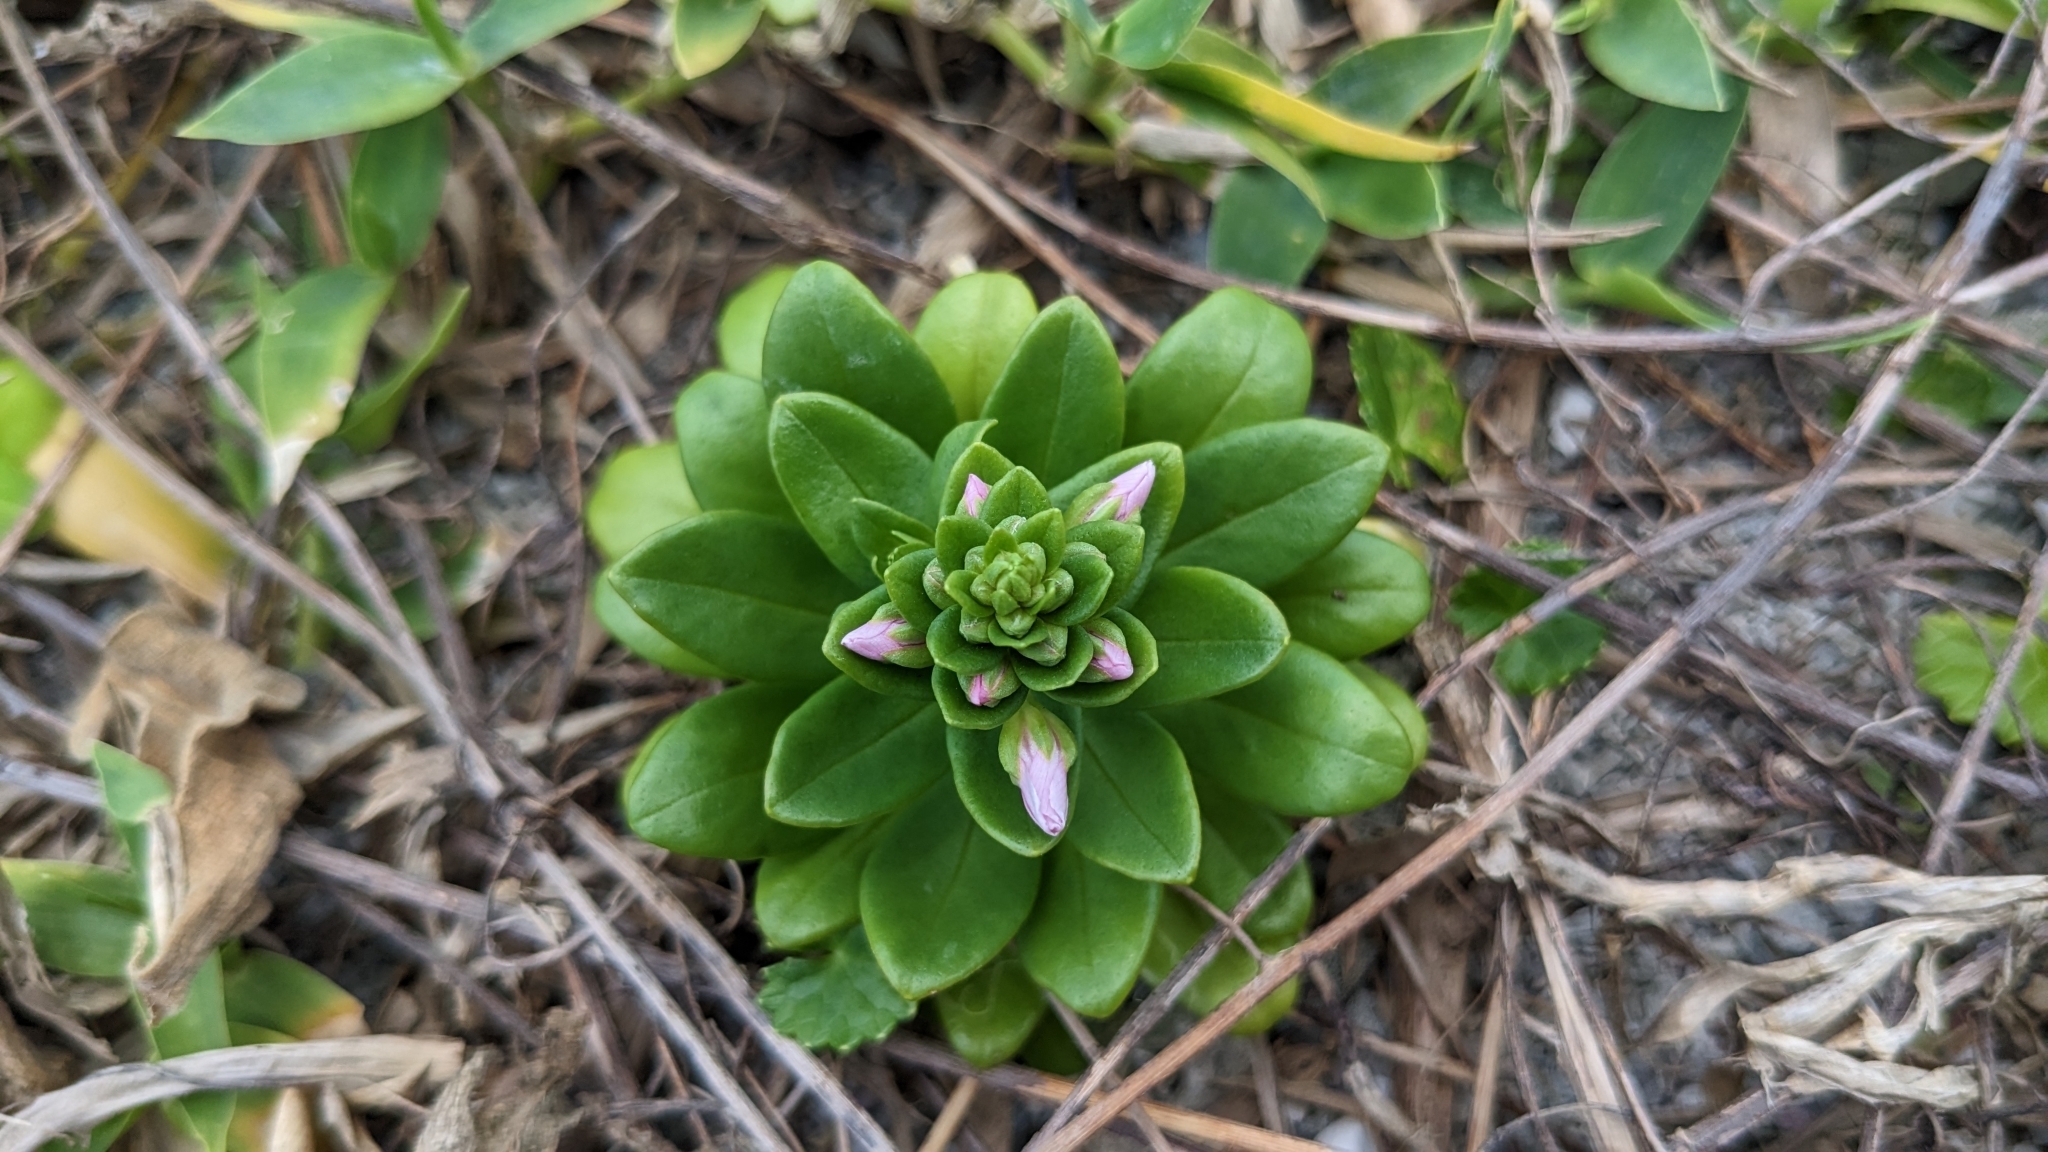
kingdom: Plantae
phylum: Tracheophyta
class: Magnoliopsida
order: Ericales
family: Primulaceae
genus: Lysimachia
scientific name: Lysimachia mauritiana
